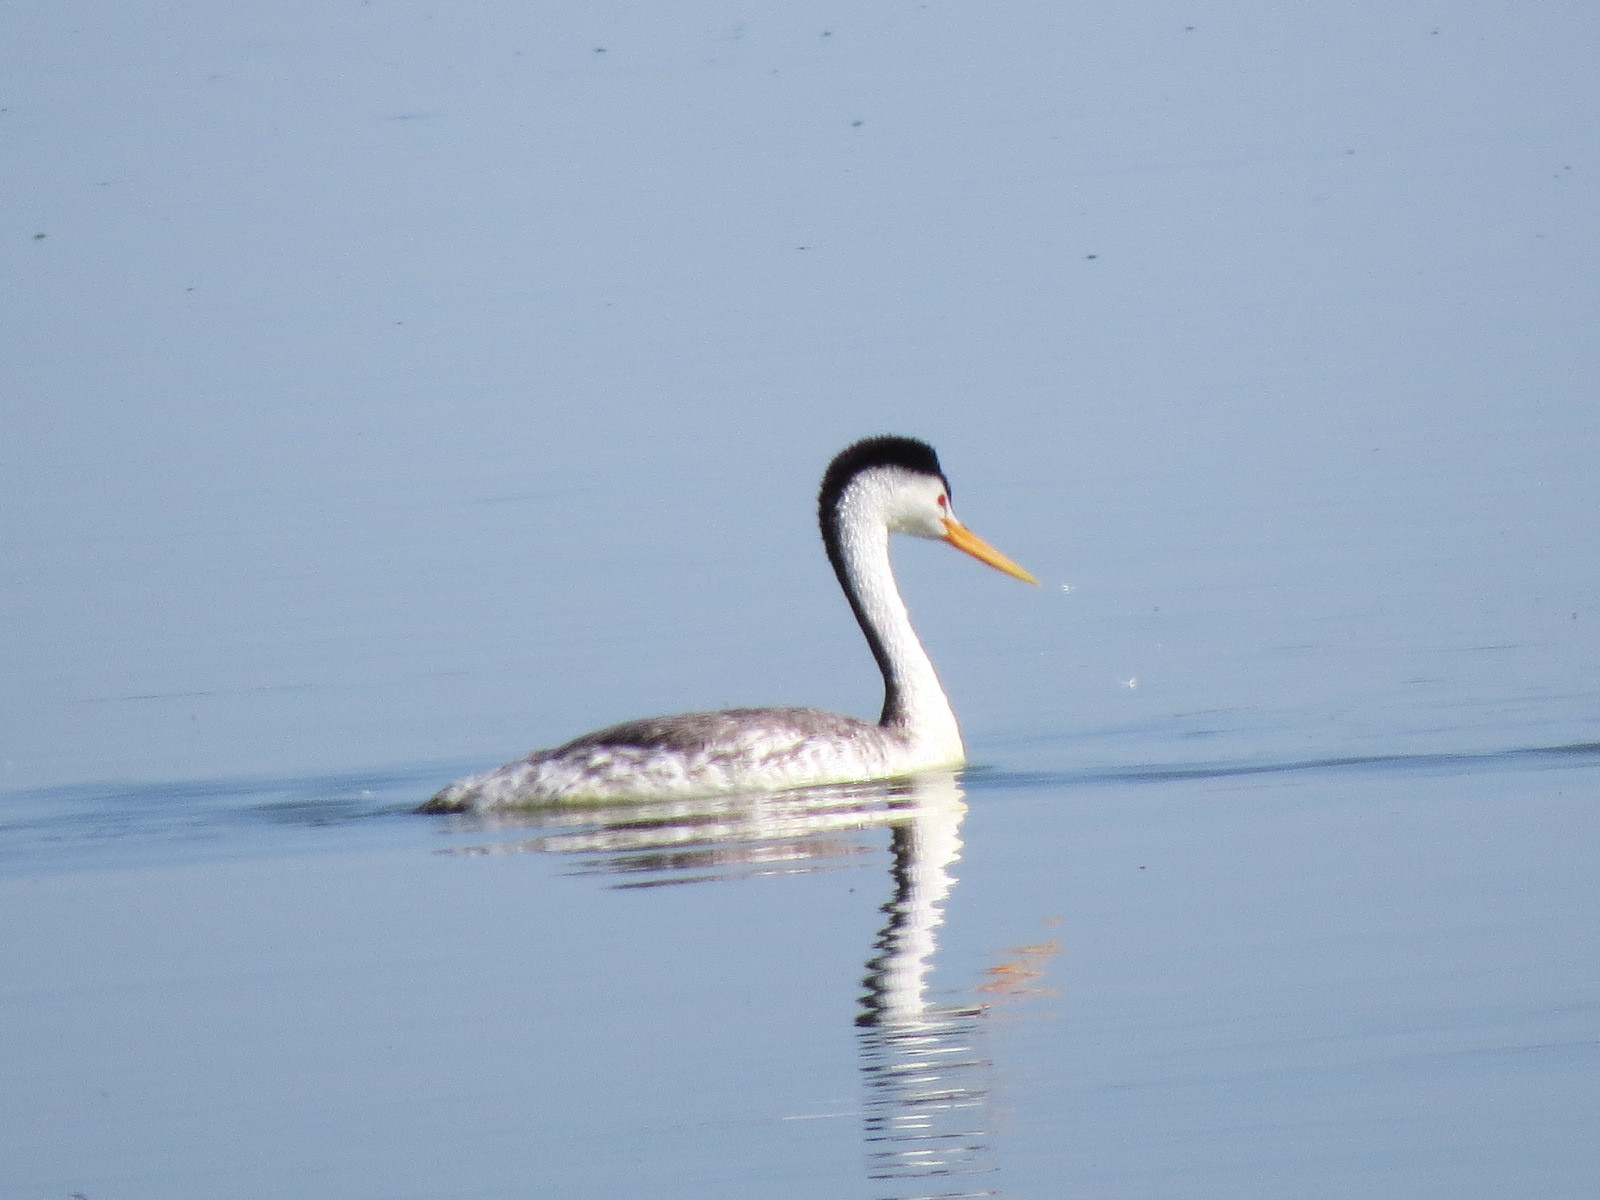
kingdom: Animalia
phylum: Chordata
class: Aves
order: Podicipediformes
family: Podicipedidae
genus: Aechmophorus
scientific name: Aechmophorus clarkii
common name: Clark's grebe
